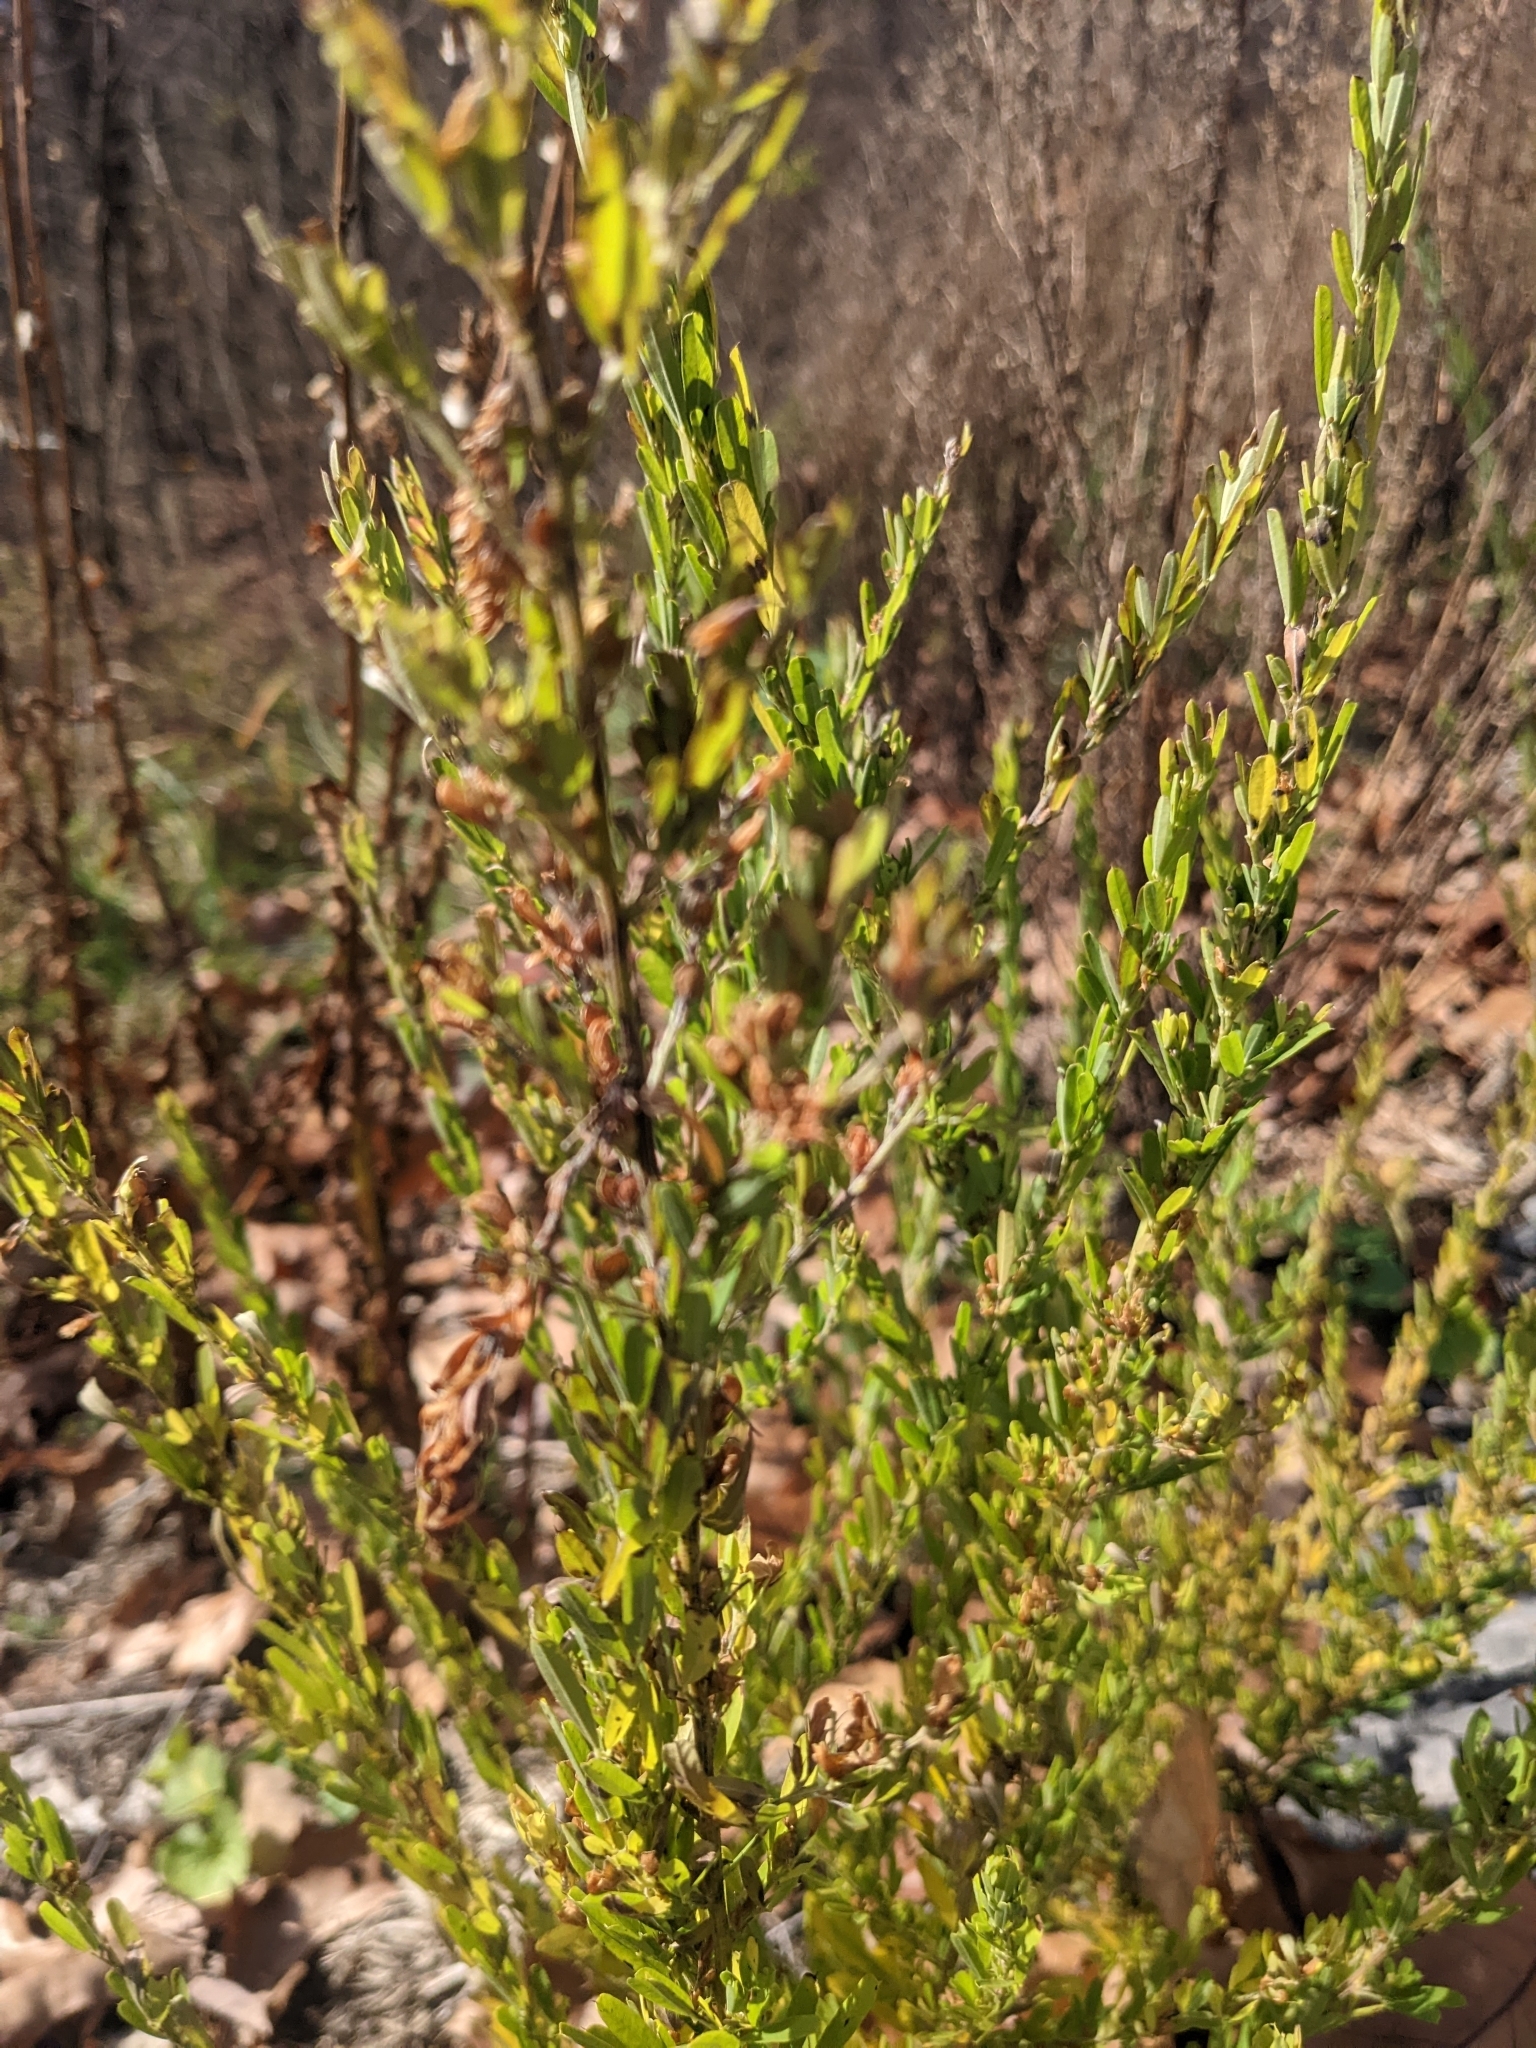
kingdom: Plantae
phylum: Tracheophyta
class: Magnoliopsida
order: Fabales
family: Fabaceae
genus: Lespedeza
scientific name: Lespedeza cuneata
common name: Chinese bush-clover
